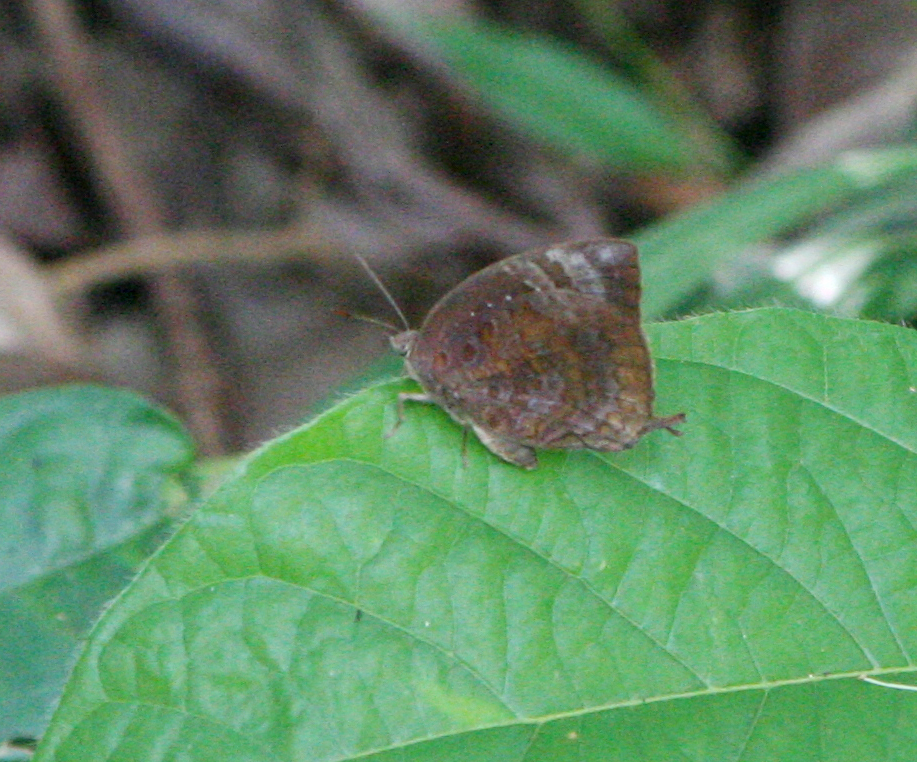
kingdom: Animalia
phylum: Arthropoda
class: Insecta
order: Lepidoptera
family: Lycaenidae
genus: Arhopala
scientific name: Arhopala centaurus
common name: Dull oak-blue
